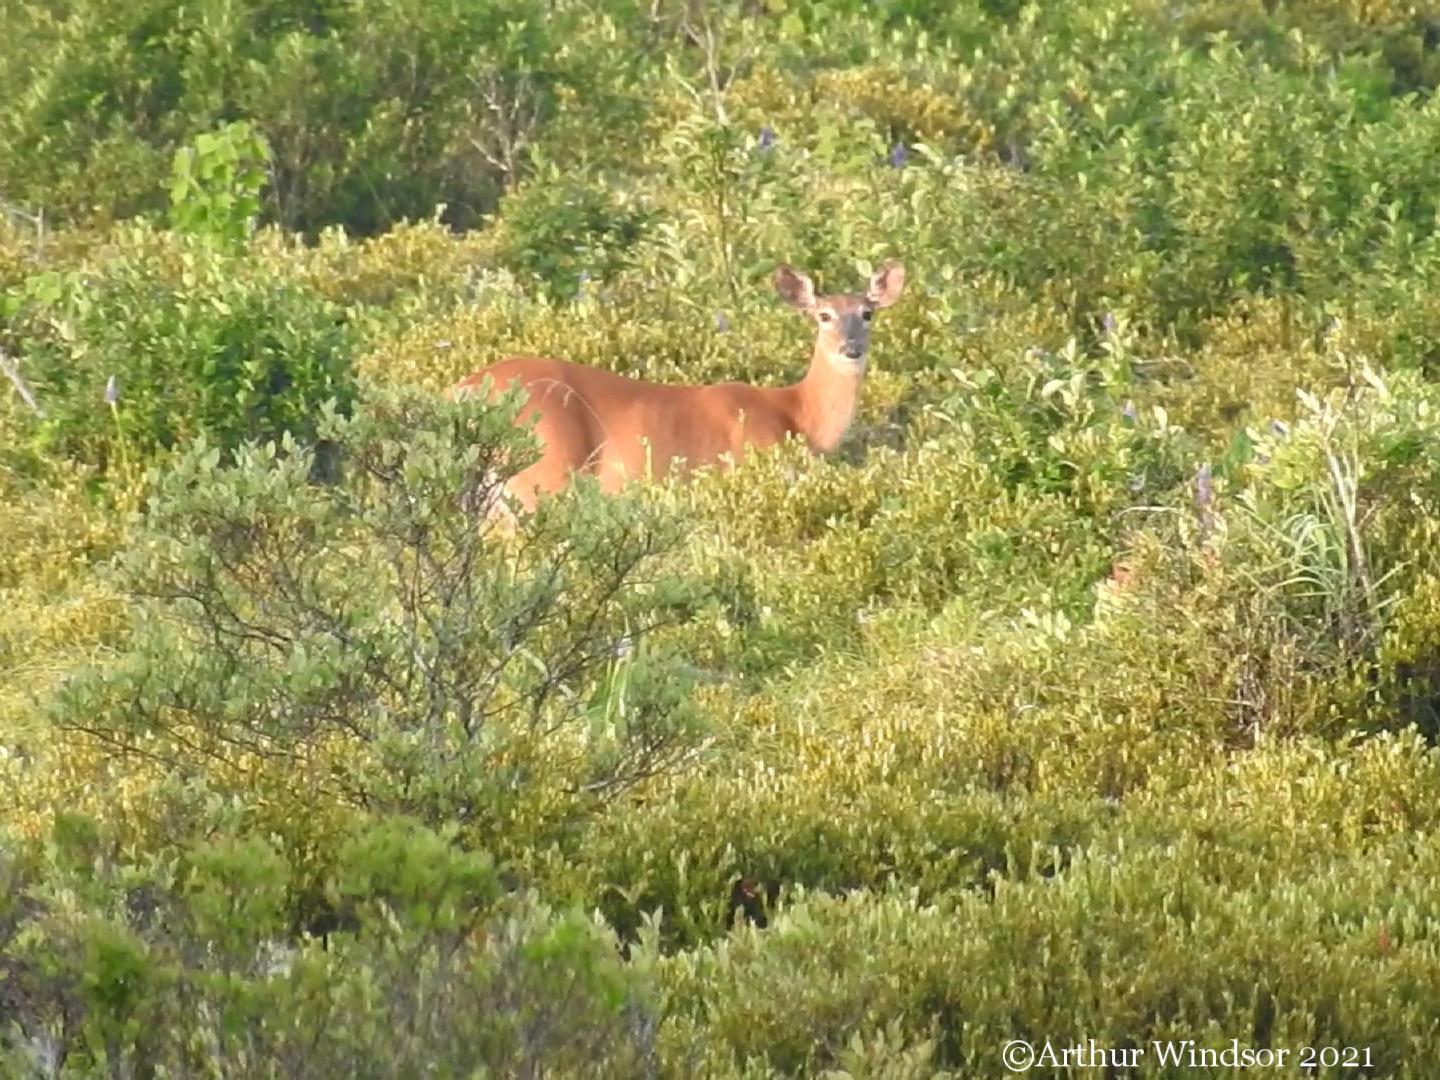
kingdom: Animalia
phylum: Chordata
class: Mammalia
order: Artiodactyla
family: Cervidae
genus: Odocoileus
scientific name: Odocoileus virginianus
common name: White-tailed deer
